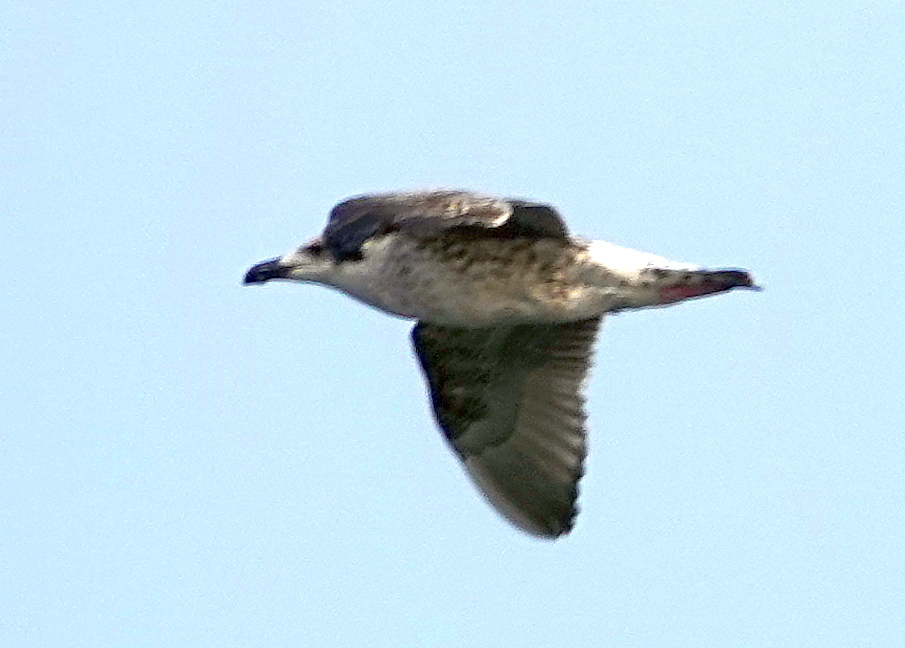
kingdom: Animalia
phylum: Chordata
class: Aves
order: Charadriiformes
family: Laridae
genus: Larus
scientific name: Larus marinus
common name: Great black-backed gull
